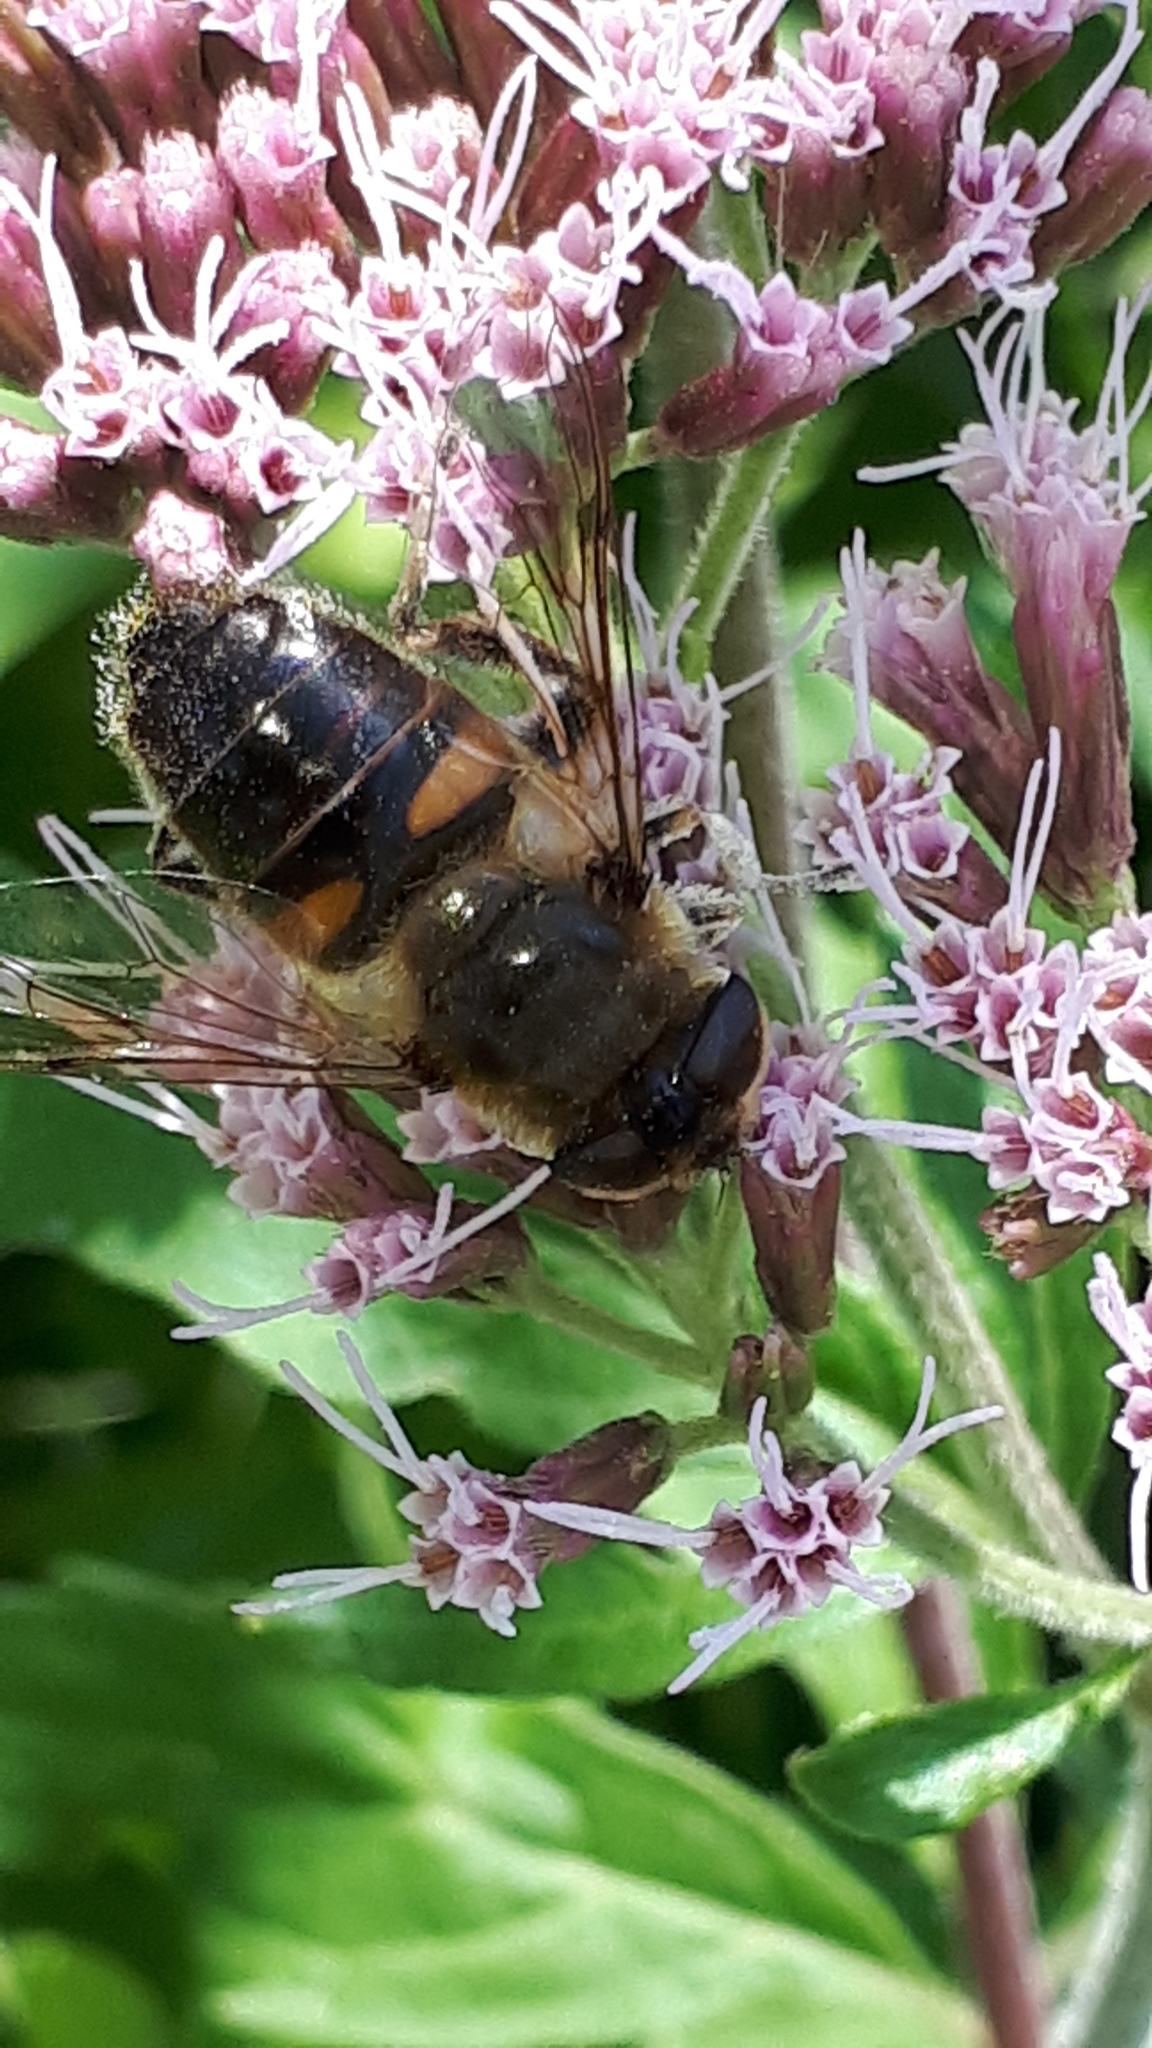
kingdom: Animalia
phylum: Arthropoda
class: Insecta
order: Diptera
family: Syrphidae
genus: Eristalis
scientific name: Eristalis tenax
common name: Drone fly
